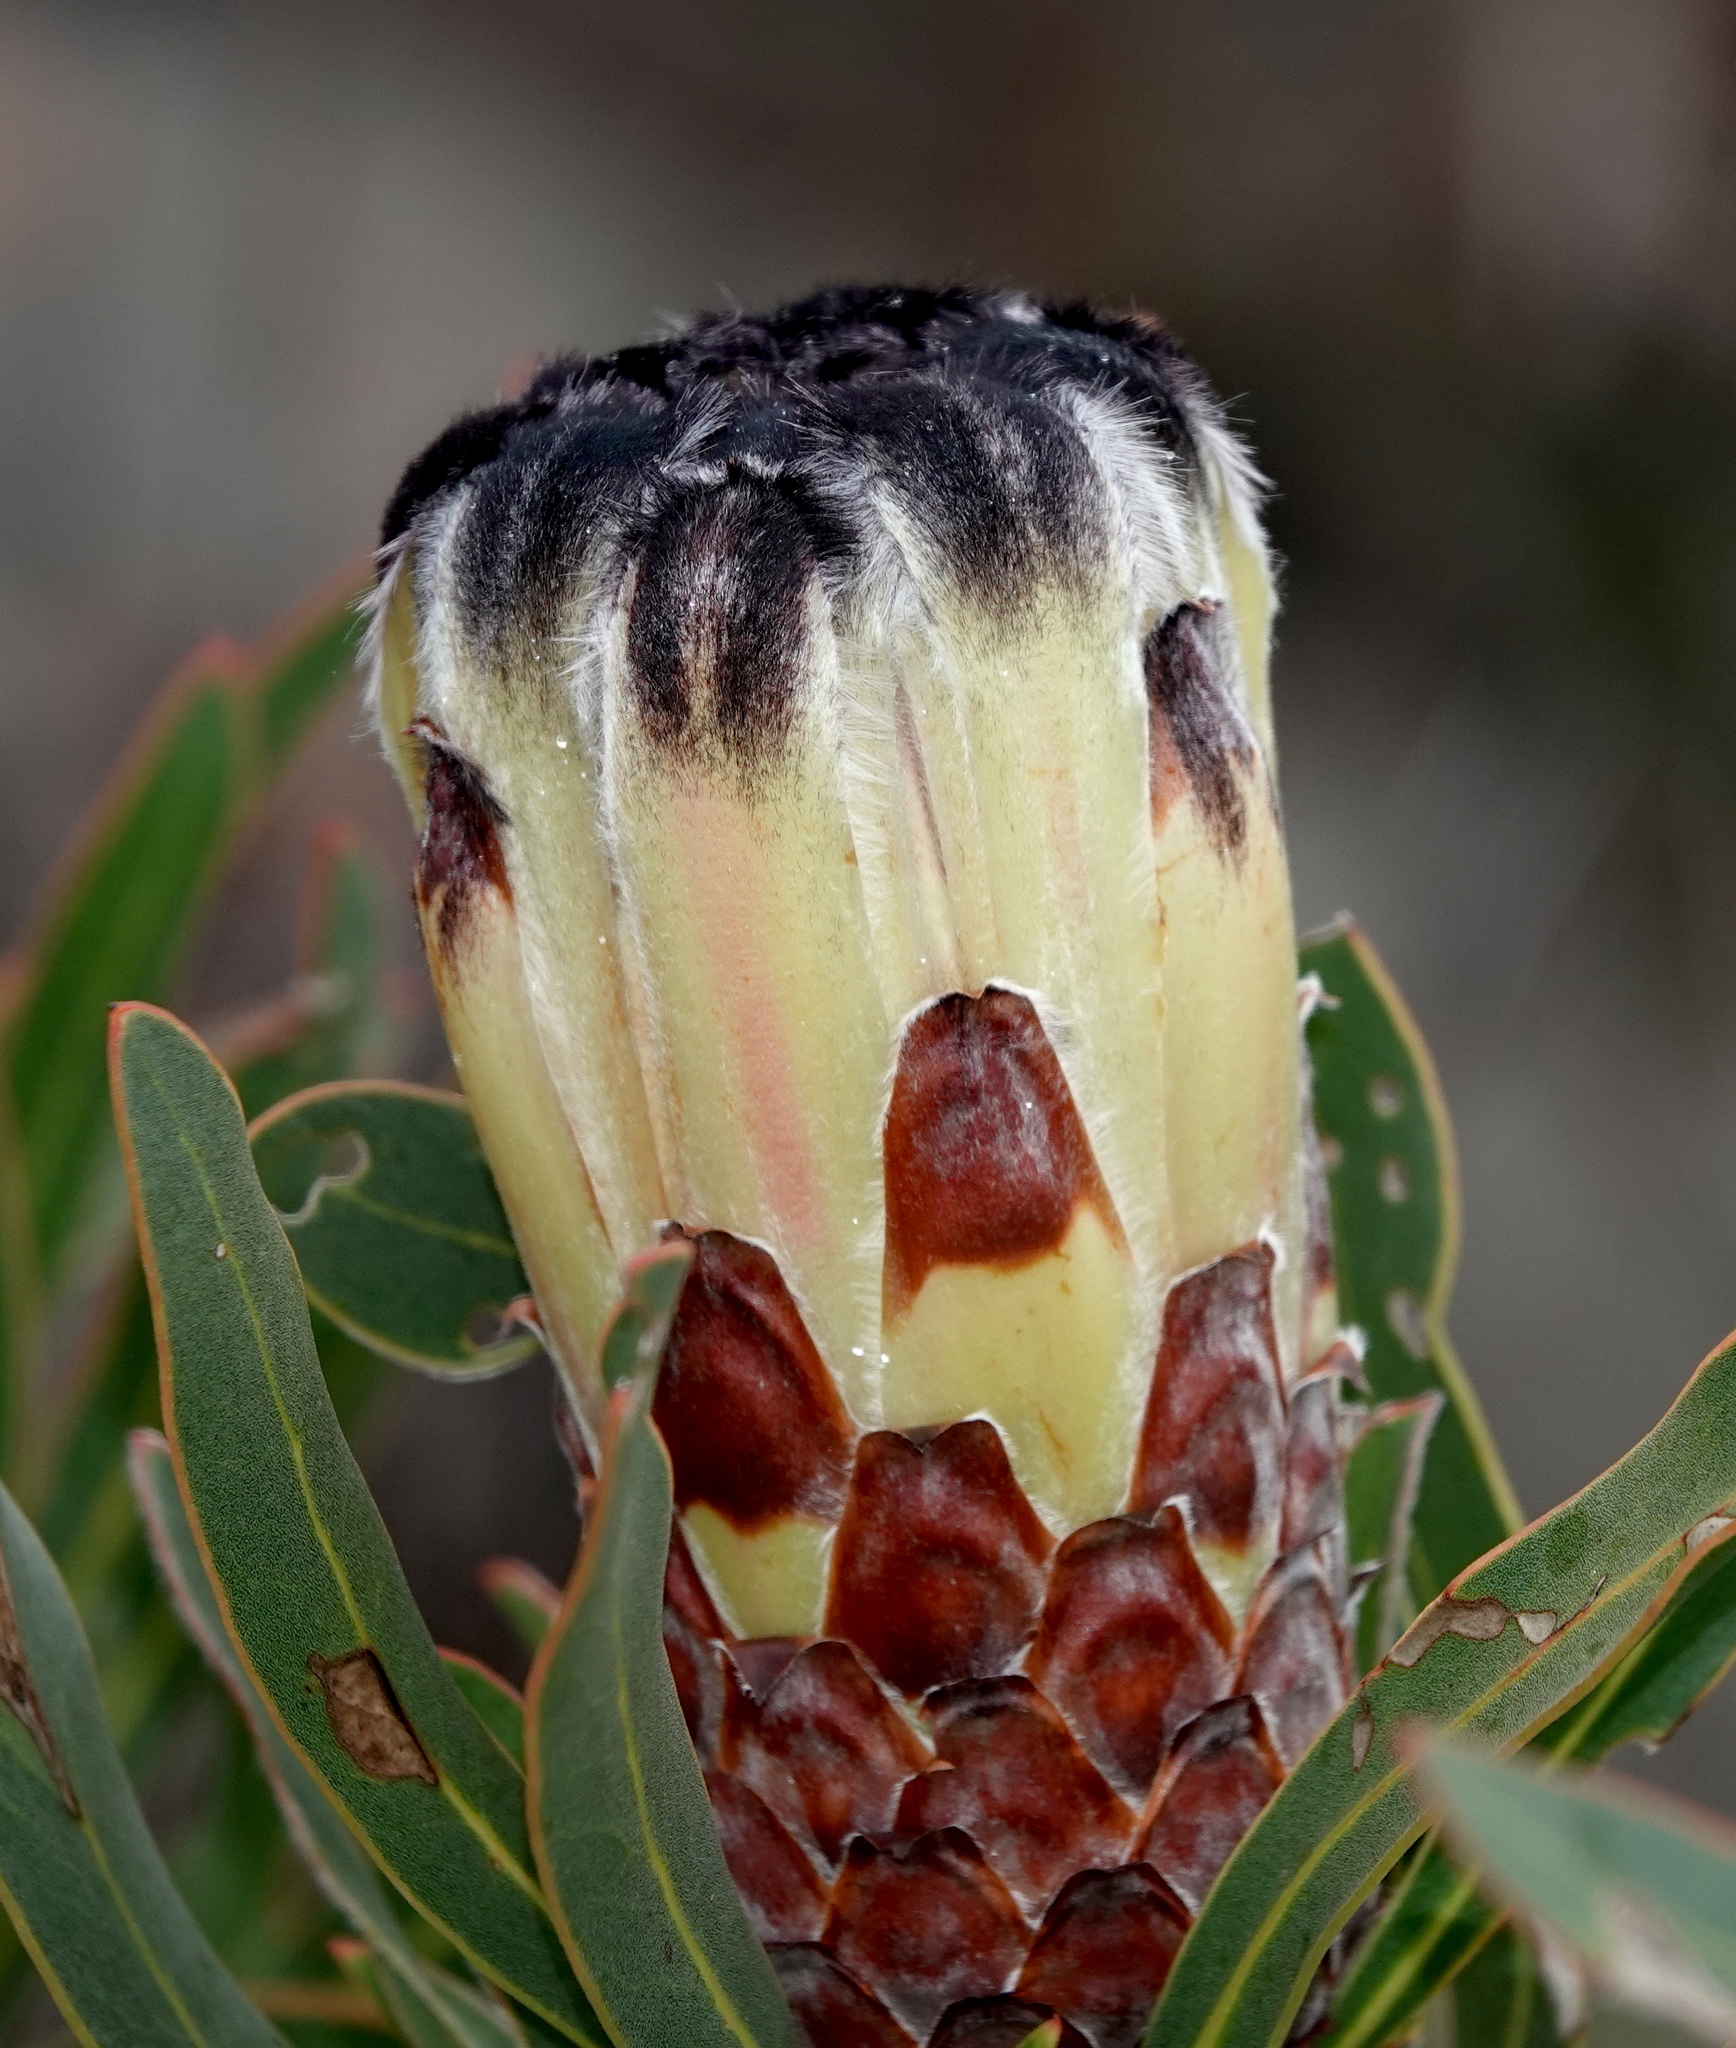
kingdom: Plantae
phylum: Tracheophyta
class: Magnoliopsida
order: Proteales
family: Proteaceae
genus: Protea
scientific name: Protea lepidocarpodendron
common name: Black-bearded protea
